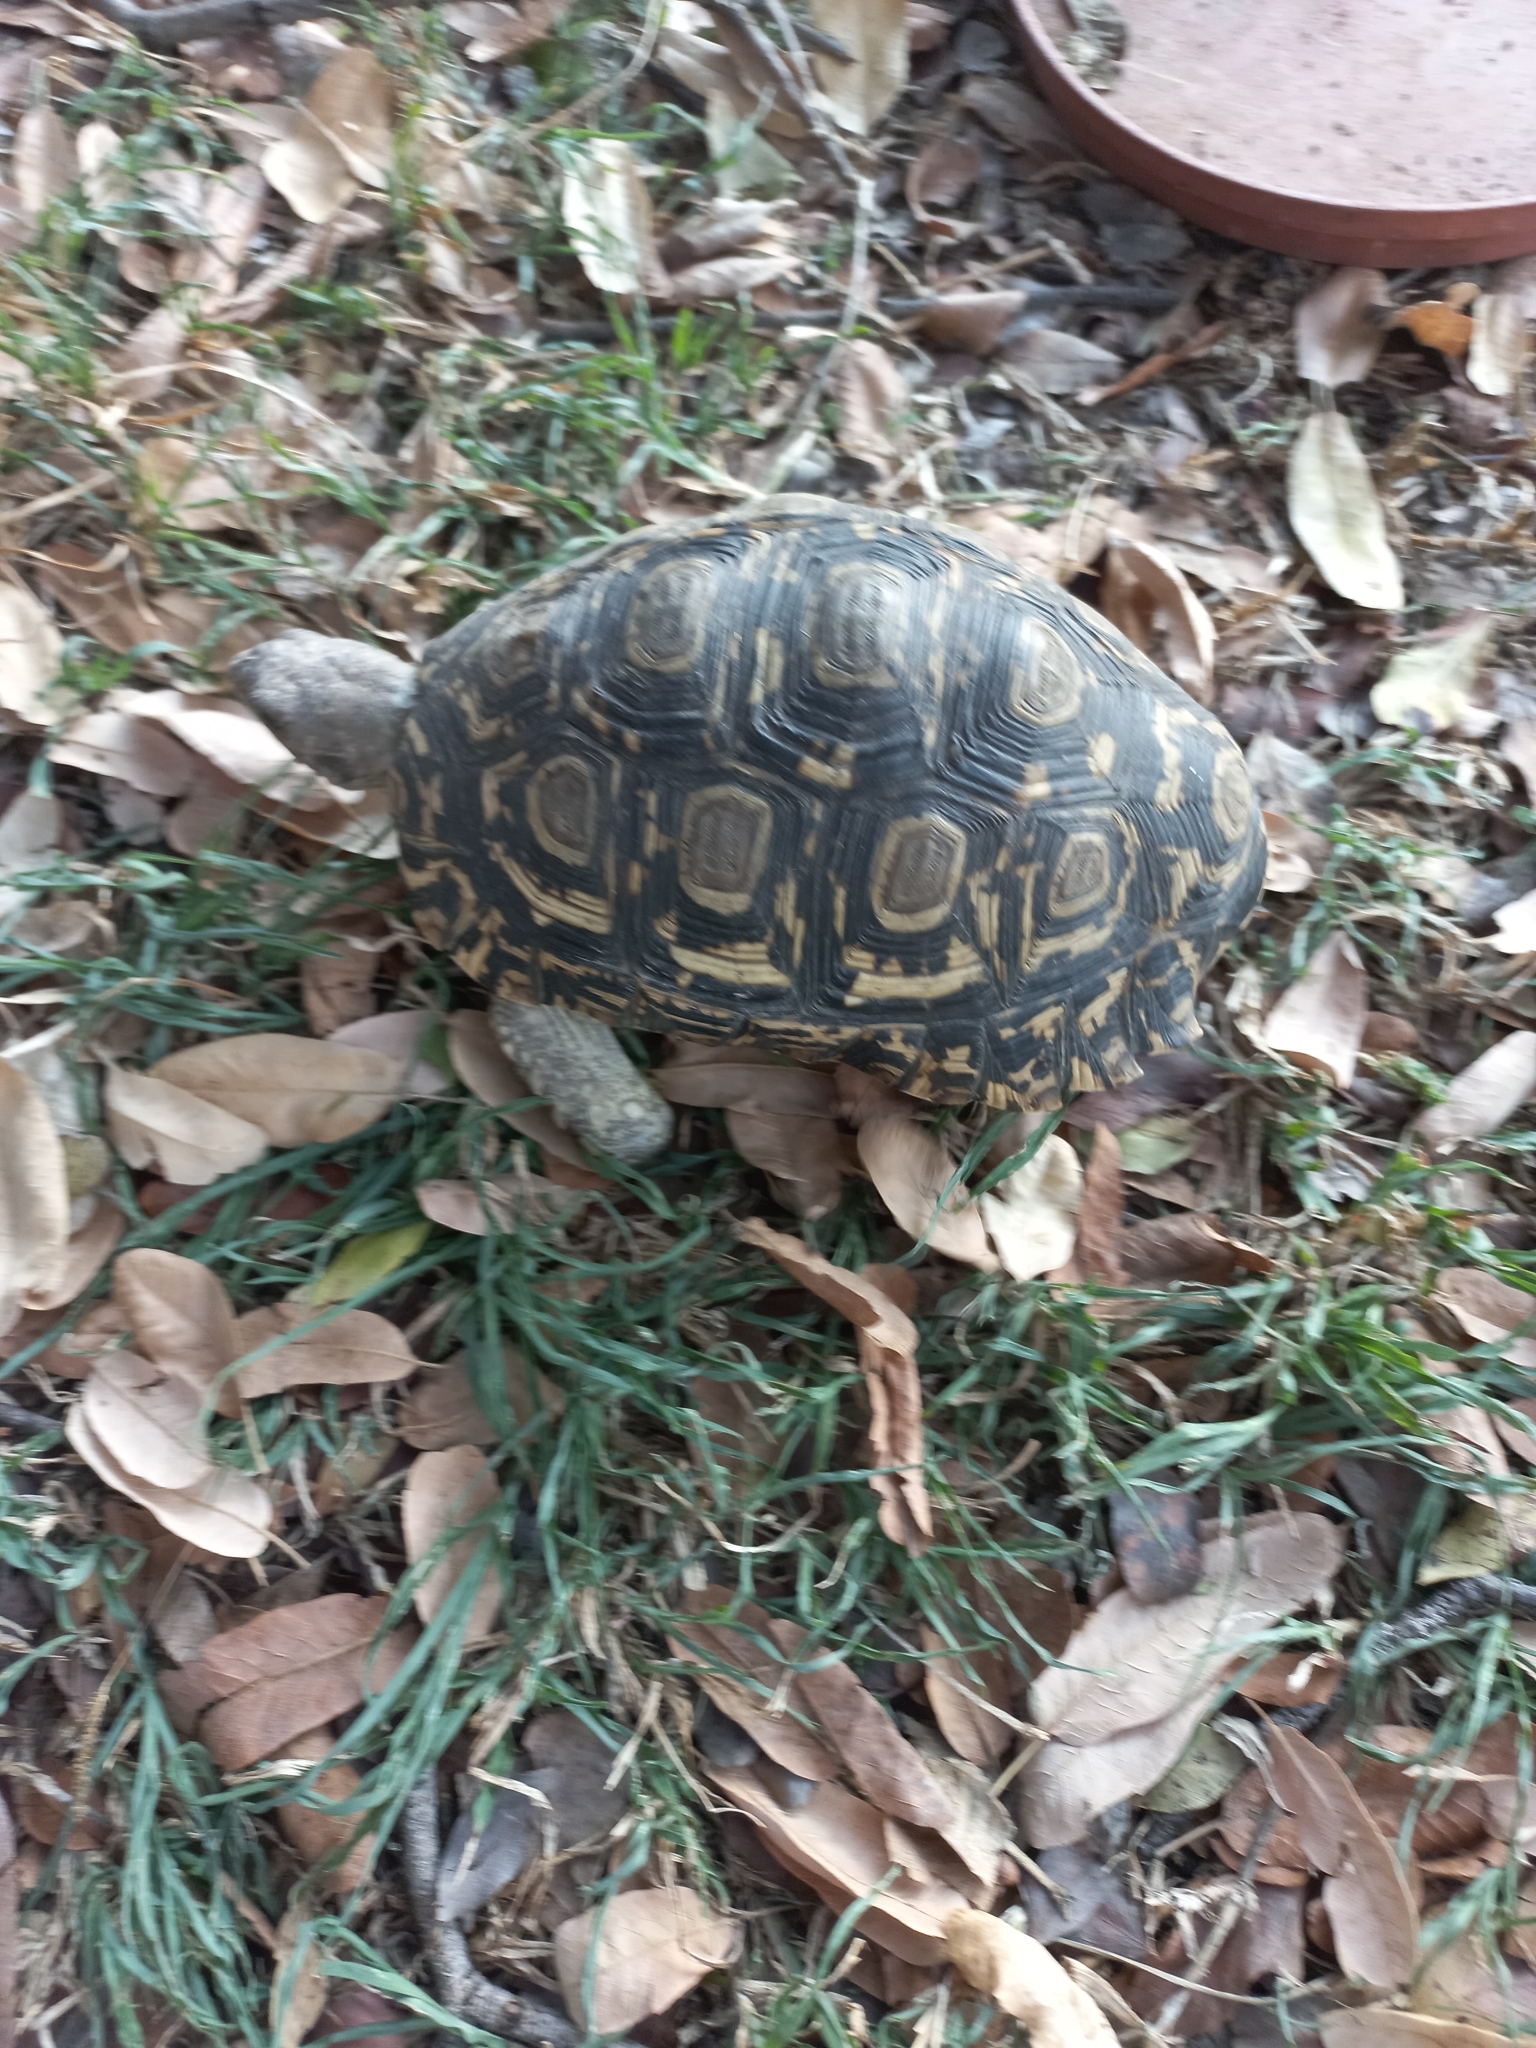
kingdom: Animalia
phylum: Chordata
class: Testudines
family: Testudinidae
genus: Stigmochelys
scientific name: Stigmochelys pardalis
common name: Leopard tortoise
